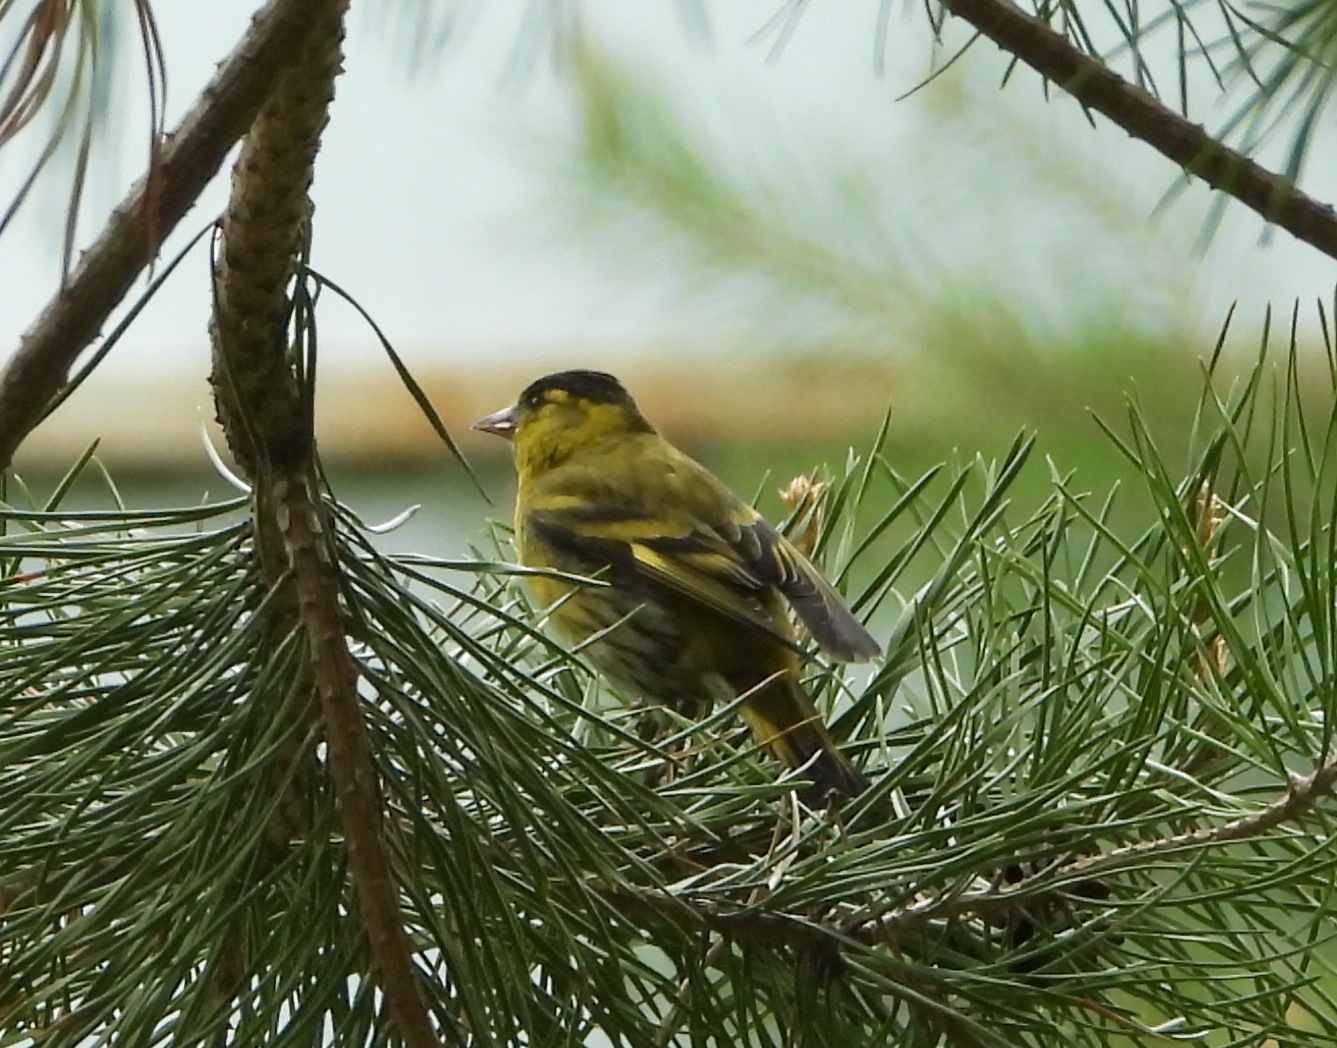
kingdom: Animalia
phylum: Chordata
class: Aves
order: Passeriformes
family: Fringillidae
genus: Spinus
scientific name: Spinus spinus
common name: Eurasian siskin
